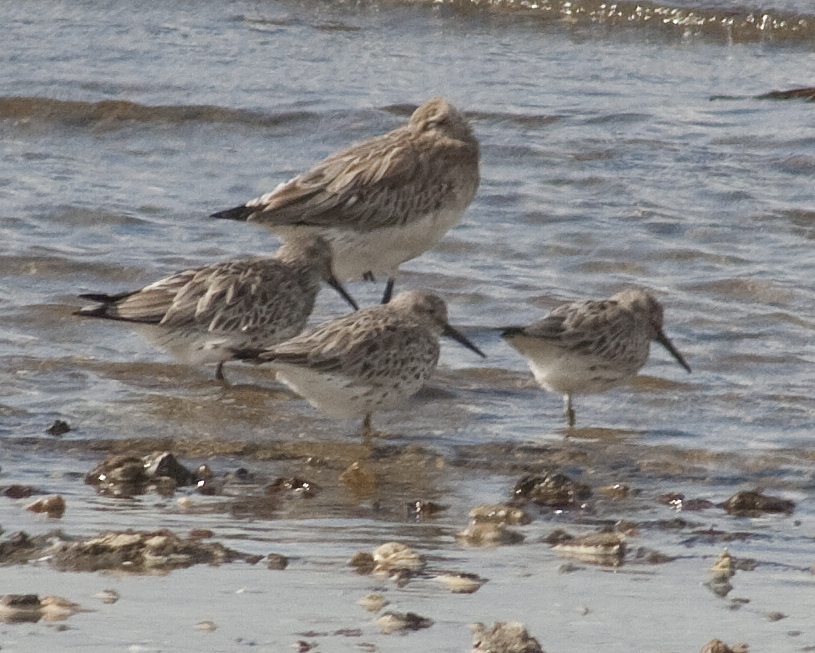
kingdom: Animalia
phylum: Chordata
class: Aves
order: Charadriiformes
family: Scolopacidae
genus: Calidris
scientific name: Calidris tenuirostris
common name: Great knot
